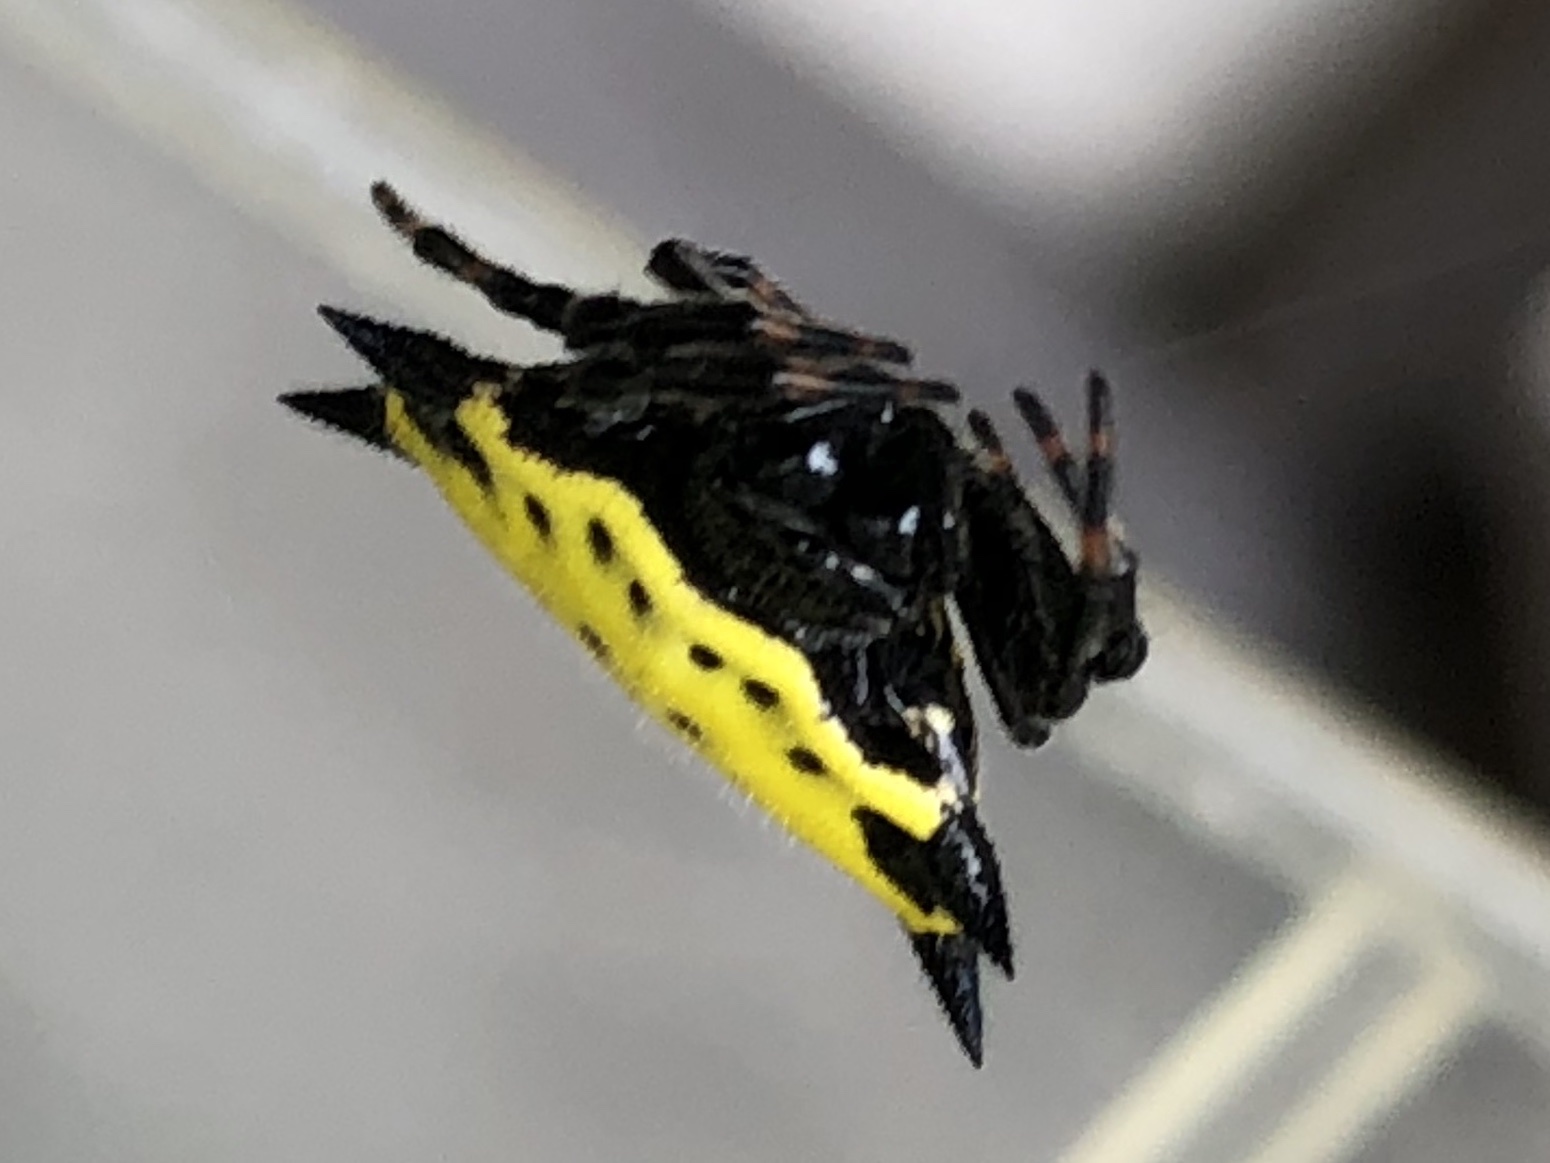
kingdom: Animalia
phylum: Arthropoda
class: Arachnida
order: Araneae
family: Araneidae
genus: Gasteracantha
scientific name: Gasteracantha cancriformis
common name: Orb weavers
